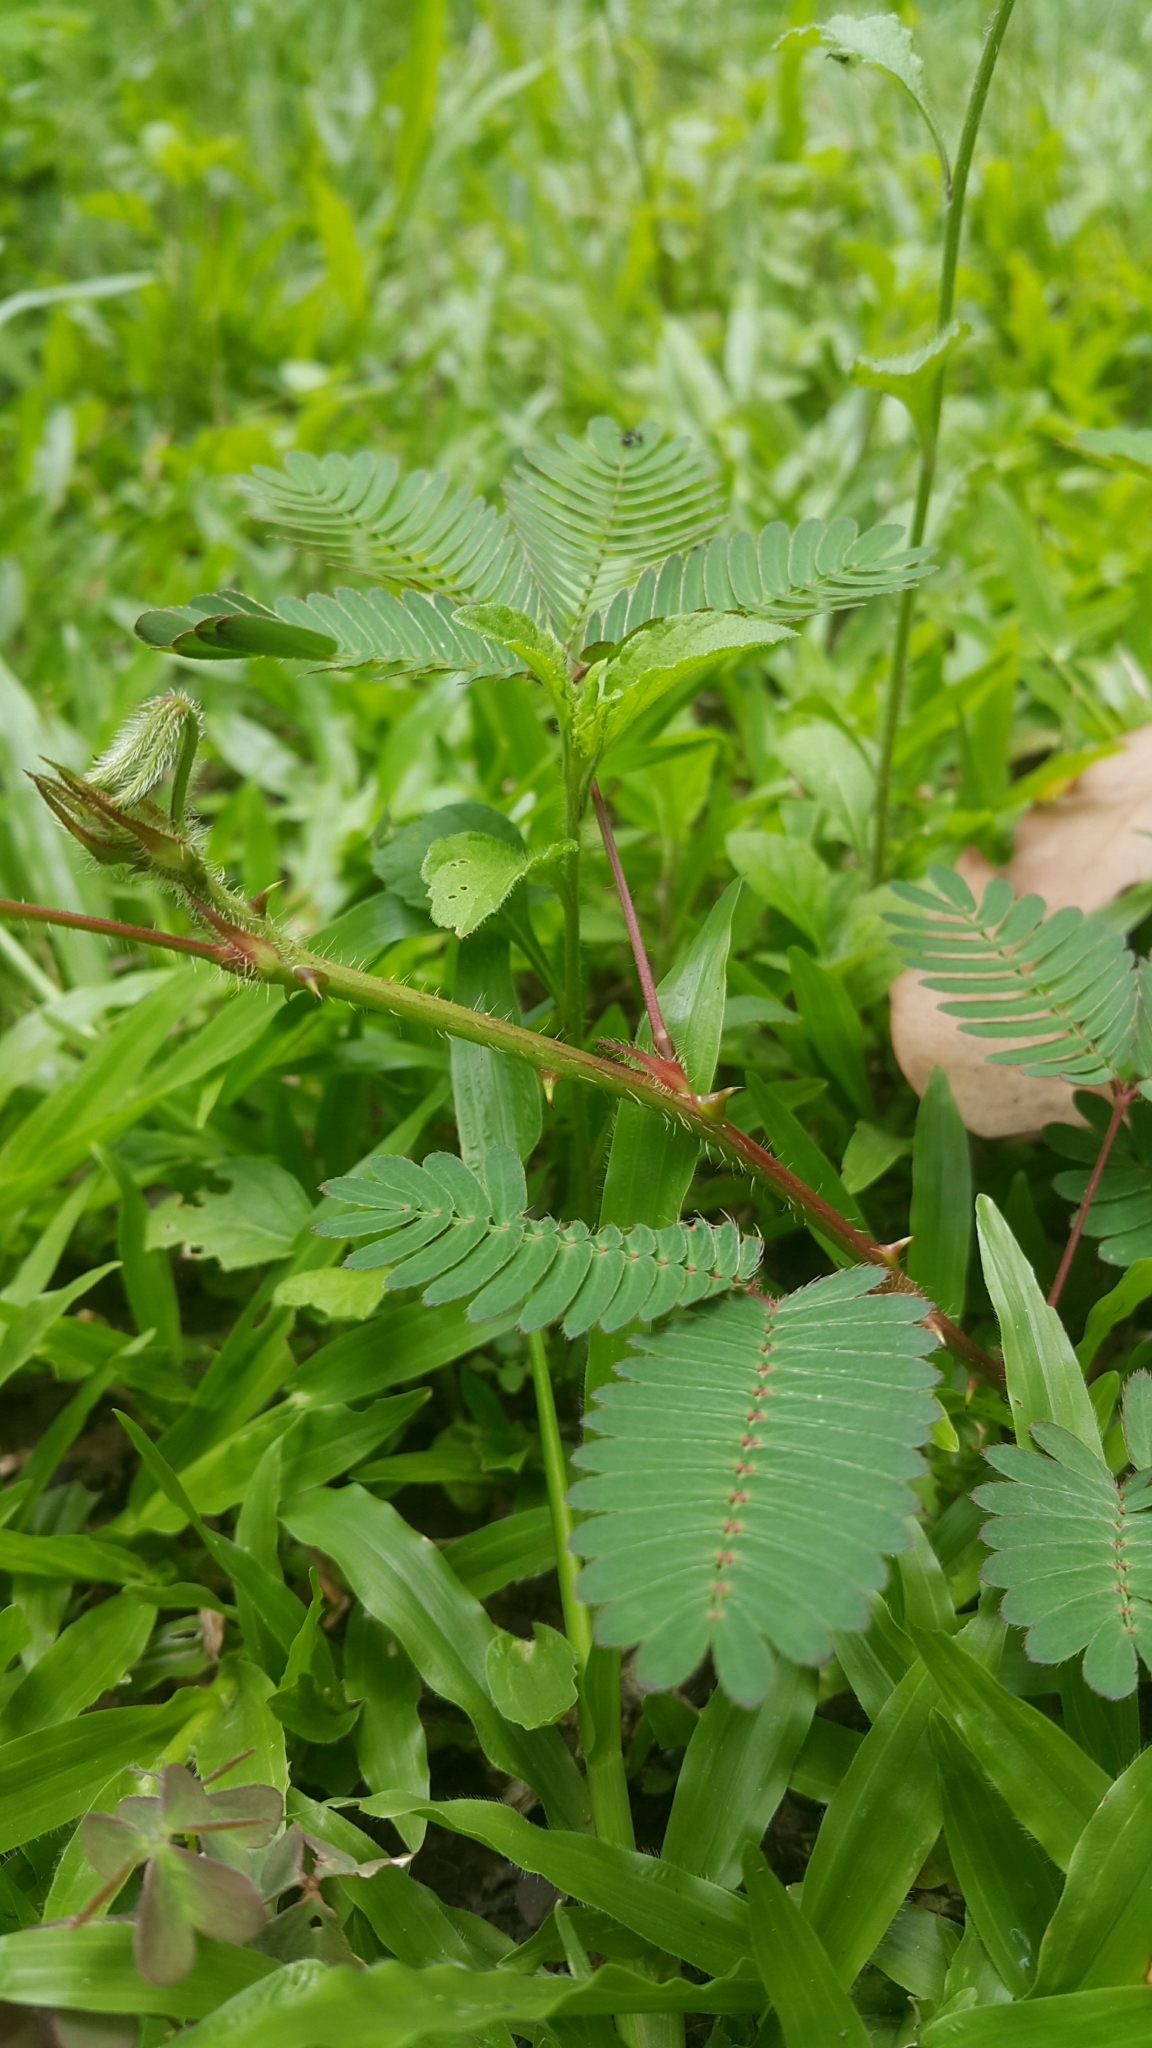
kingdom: Plantae
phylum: Tracheophyta
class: Magnoliopsida
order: Fabales
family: Fabaceae
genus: Mimosa
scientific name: Mimosa pudica
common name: Sensitive plant
